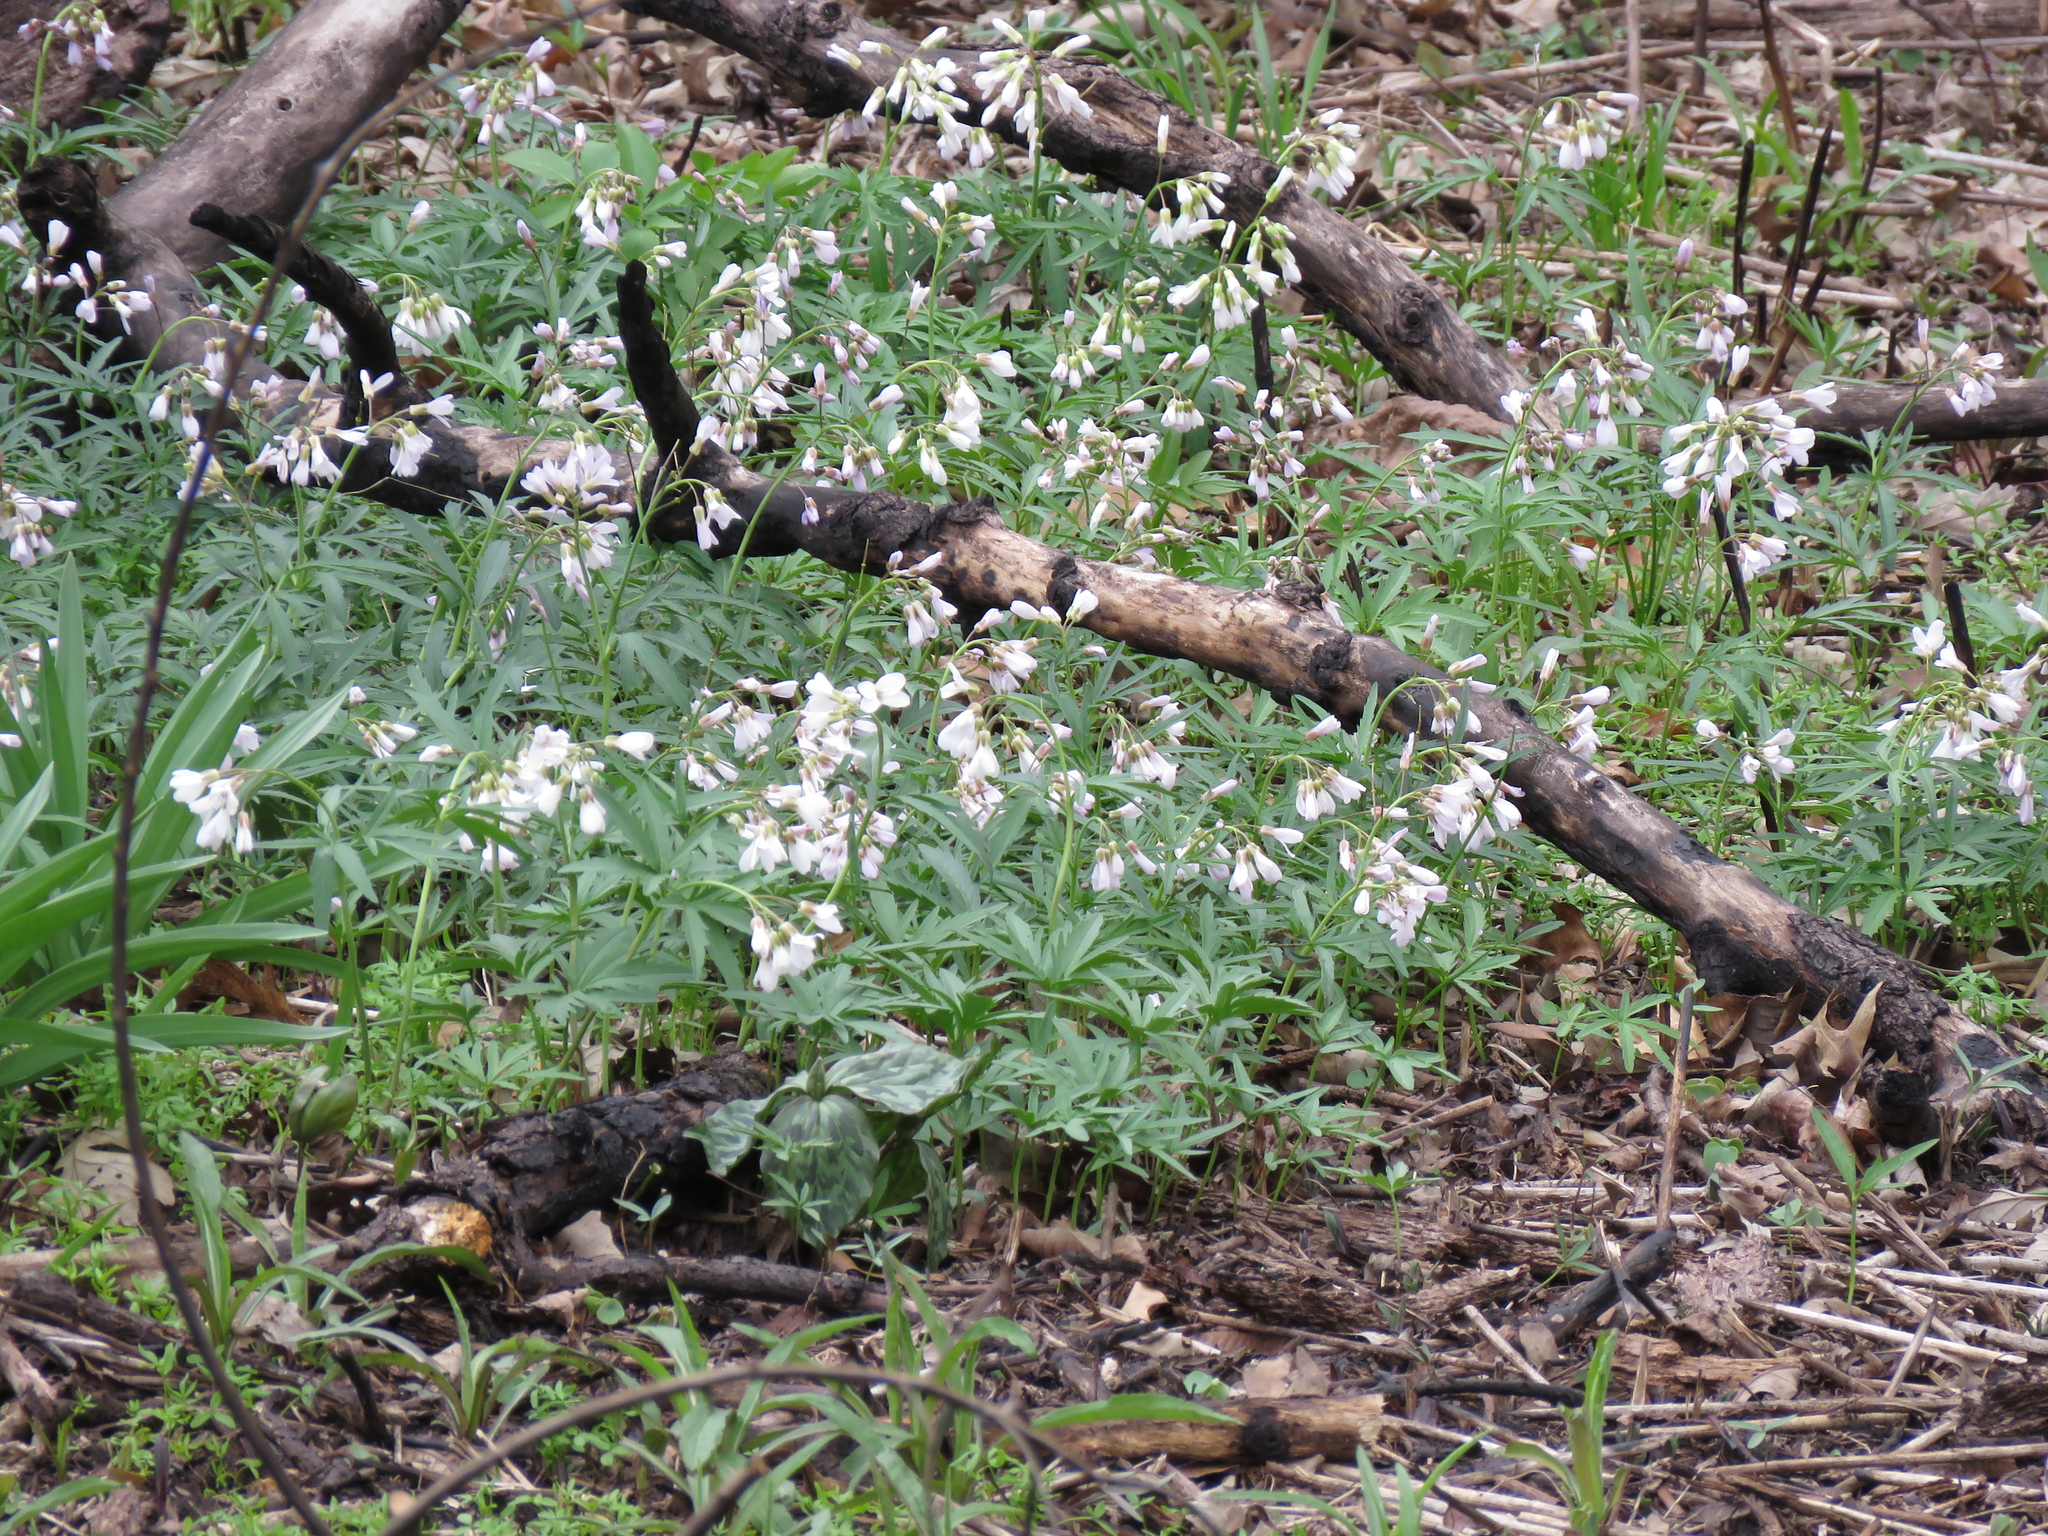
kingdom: Plantae
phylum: Tracheophyta
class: Magnoliopsida
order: Brassicales
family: Brassicaceae
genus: Cardamine
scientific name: Cardamine concatenata
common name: Cut-leaf toothcup
